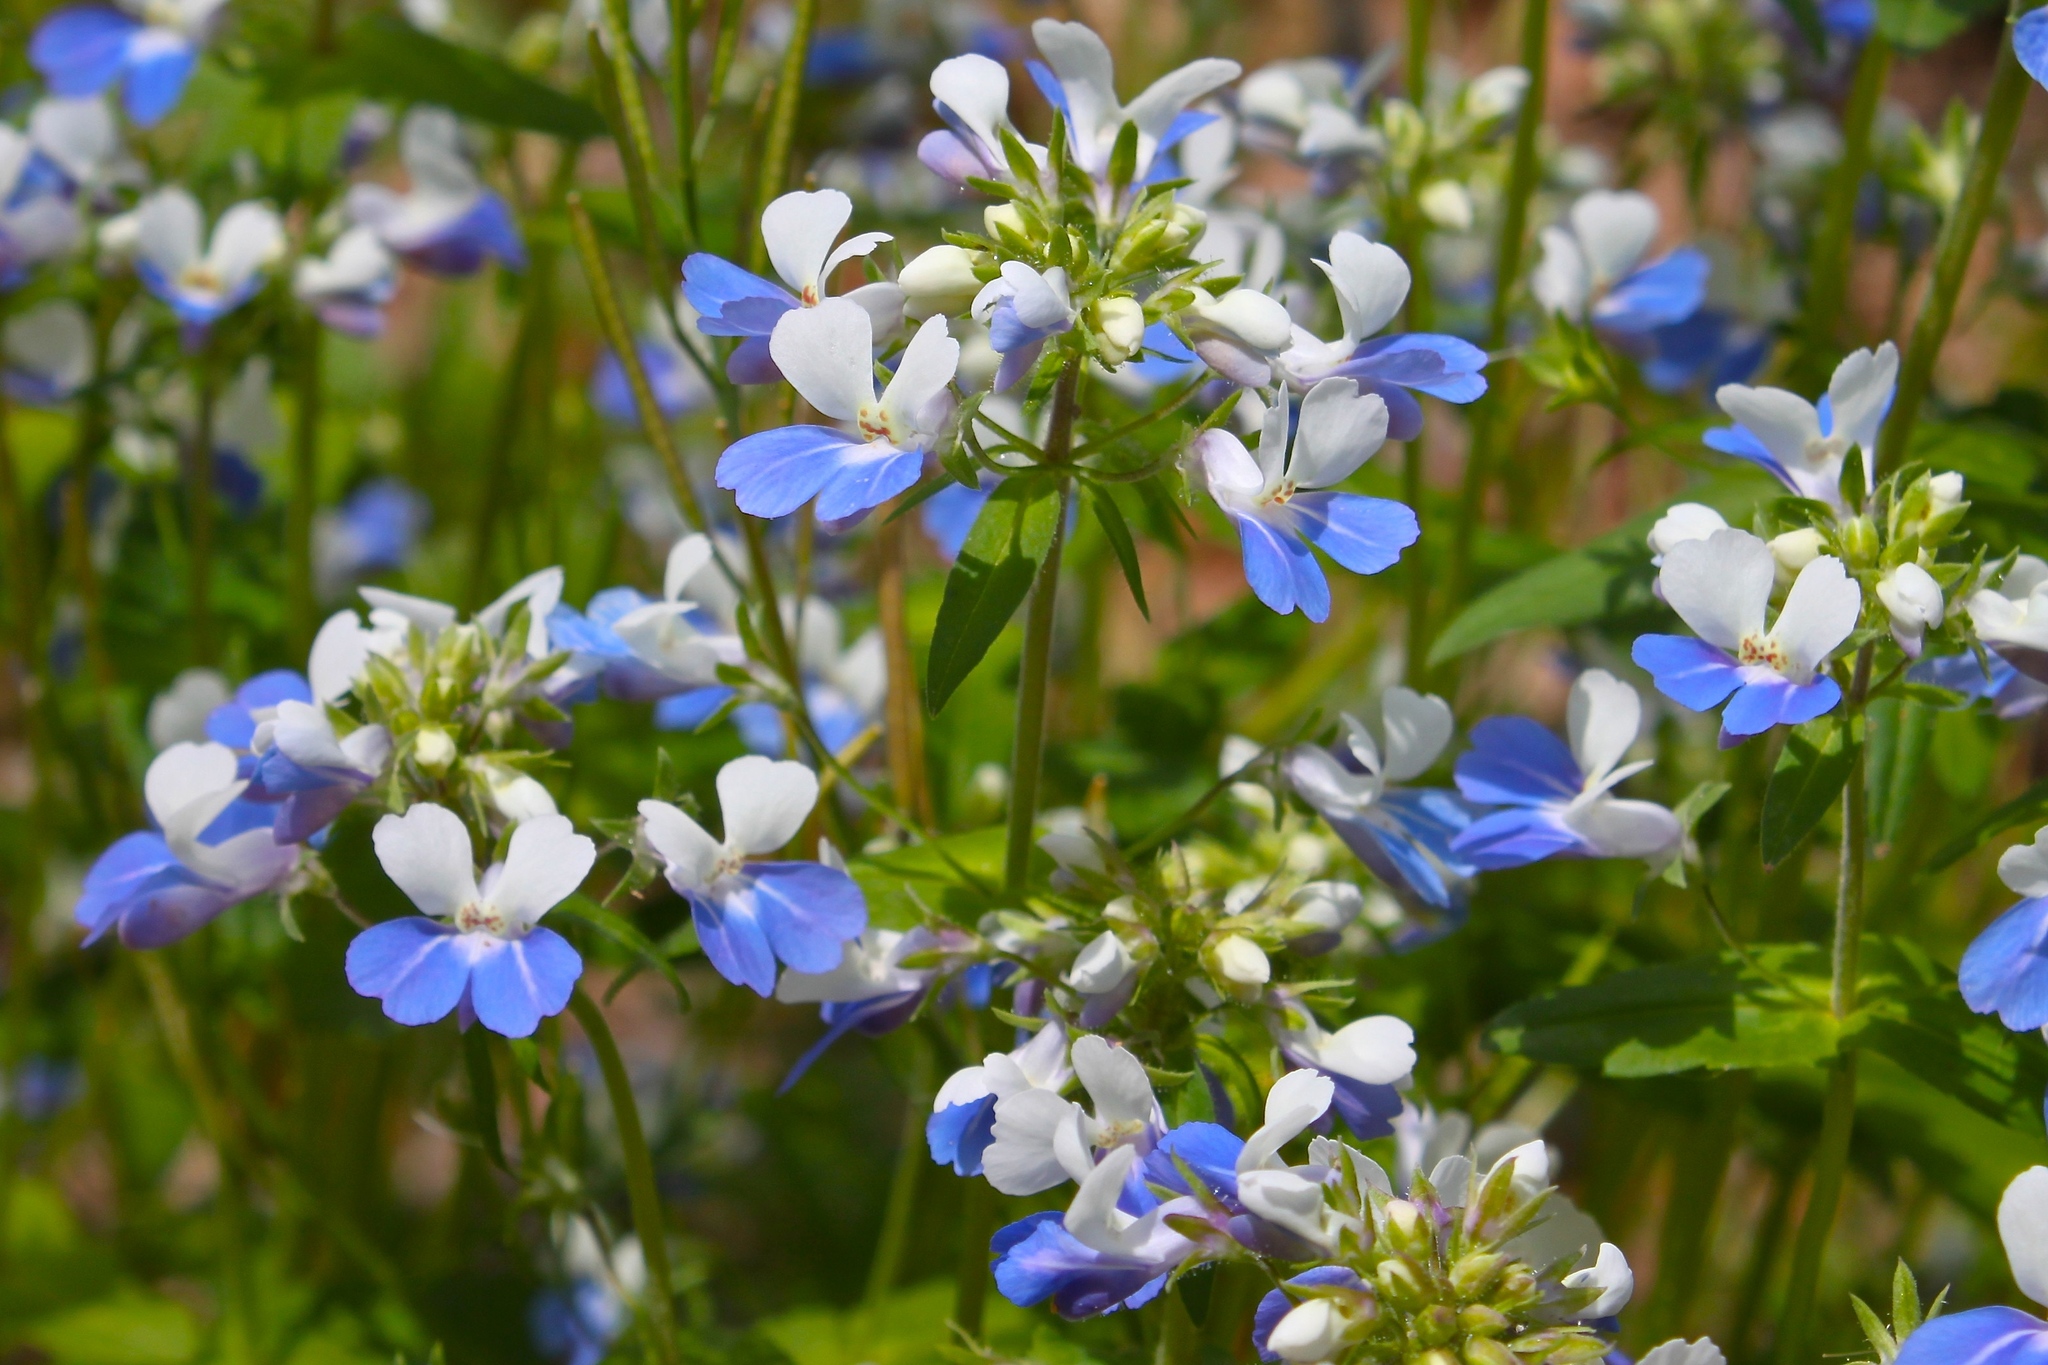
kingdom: Plantae
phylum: Tracheophyta
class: Magnoliopsida
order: Lamiales
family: Plantaginaceae
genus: Collinsia
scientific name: Collinsia verna
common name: Broad-leaved collinsia
